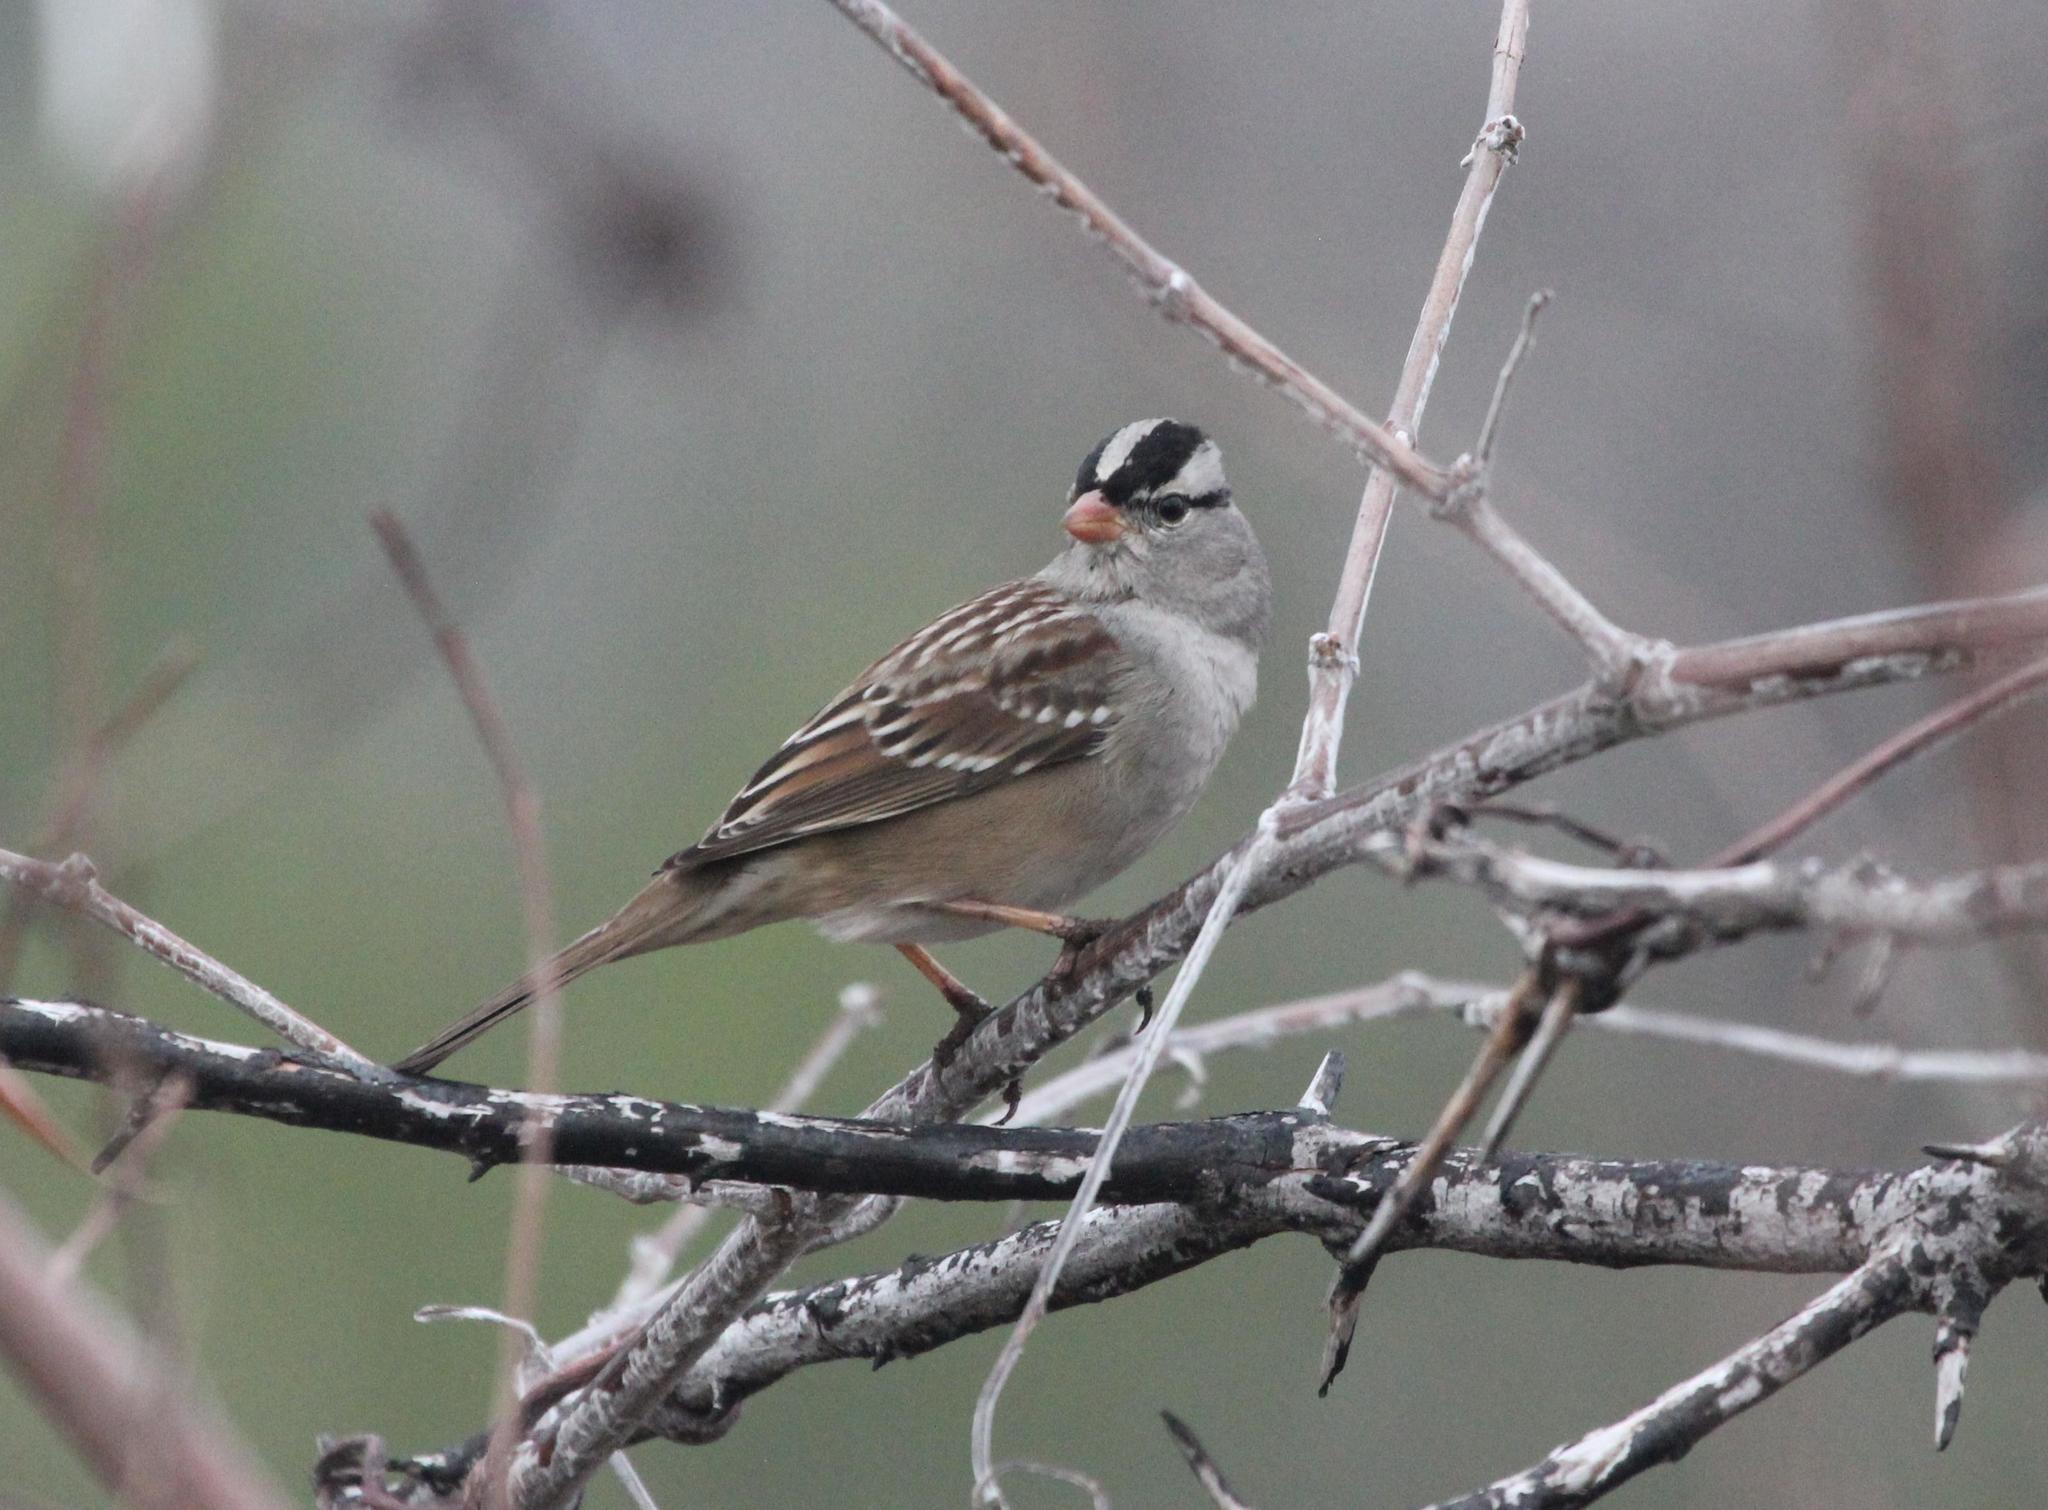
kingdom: Animalia
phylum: Chordata
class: Aves
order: Passeriformes
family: Passerellidae
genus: Zonotrichia
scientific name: Zonotrichia leucophrys
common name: White-crowned sparrow
